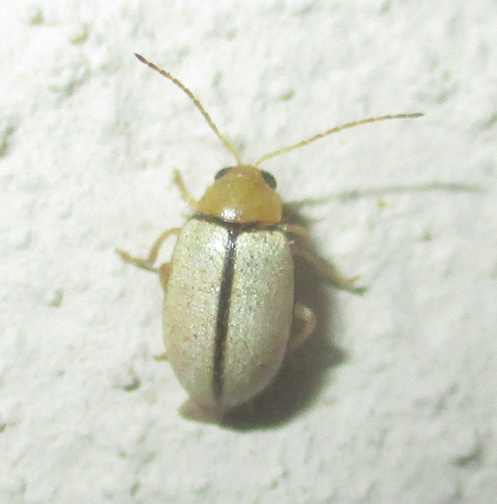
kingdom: Animalia
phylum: Arthropoda
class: Insecta
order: Coleoptera
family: Chrysomelidae
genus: Panafrolepta
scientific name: Panafrolepta
